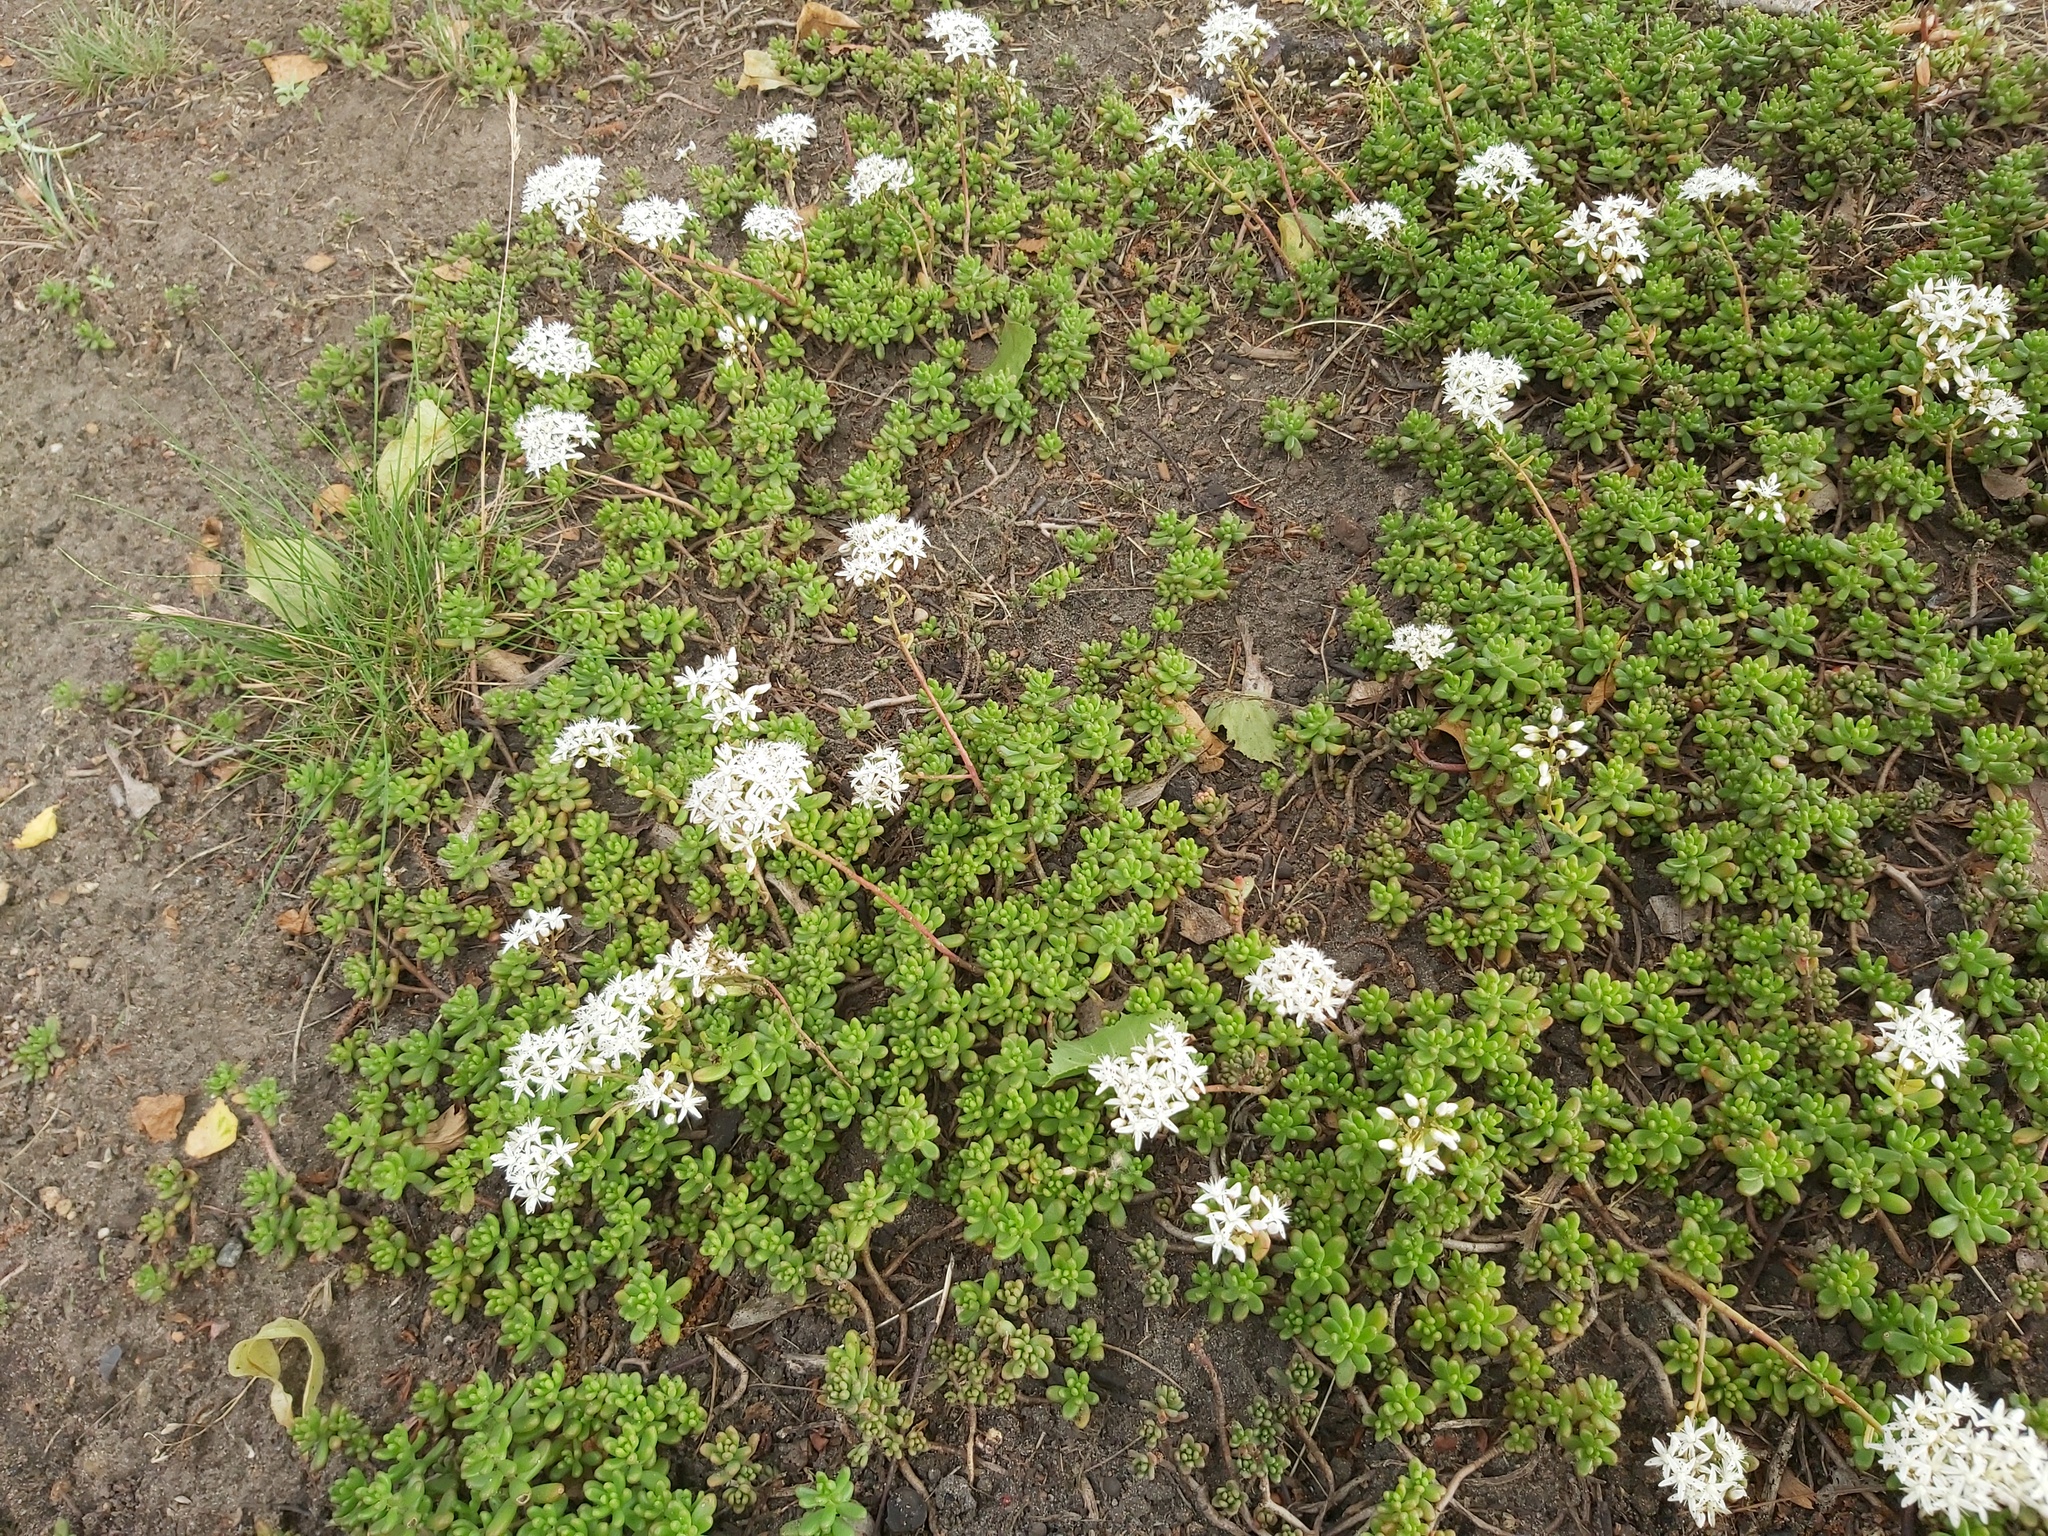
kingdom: Plantae
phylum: Tracheophyta
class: Magnoliopsida
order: Saxifragales
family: Crassulaceae
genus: Sedum
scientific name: Sedum album
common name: White stonecrop
